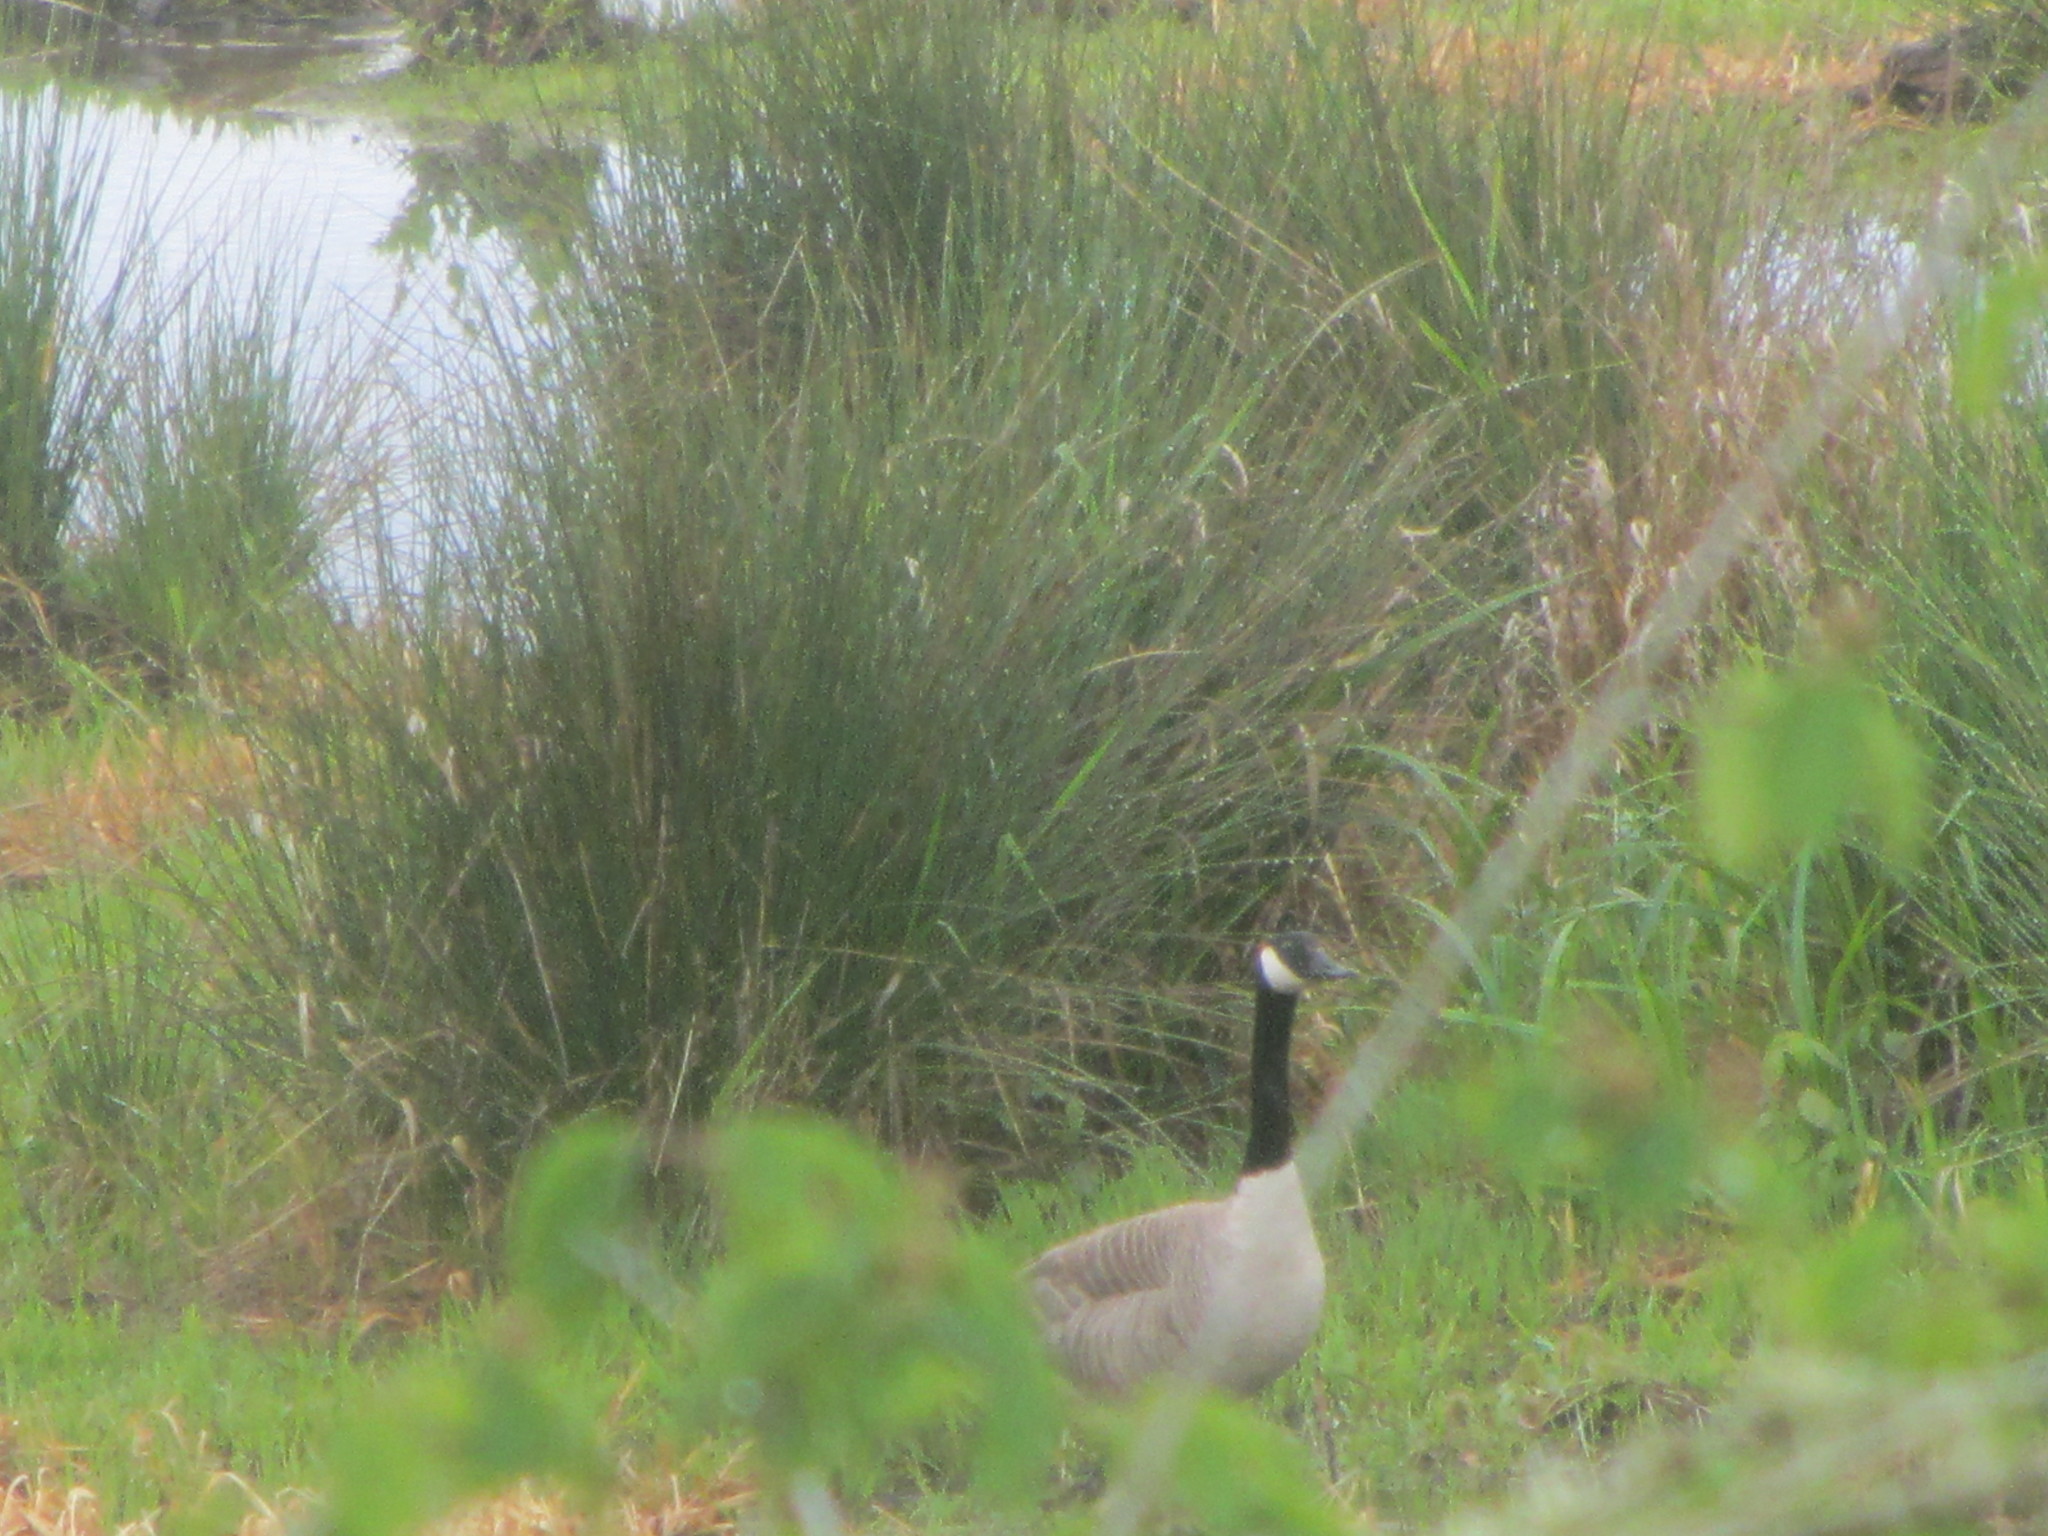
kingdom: Animalia
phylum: Chordata
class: Aves
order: Anseriformes
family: Anatidae
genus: Branta
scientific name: Branta canadensis
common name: Canada goose
